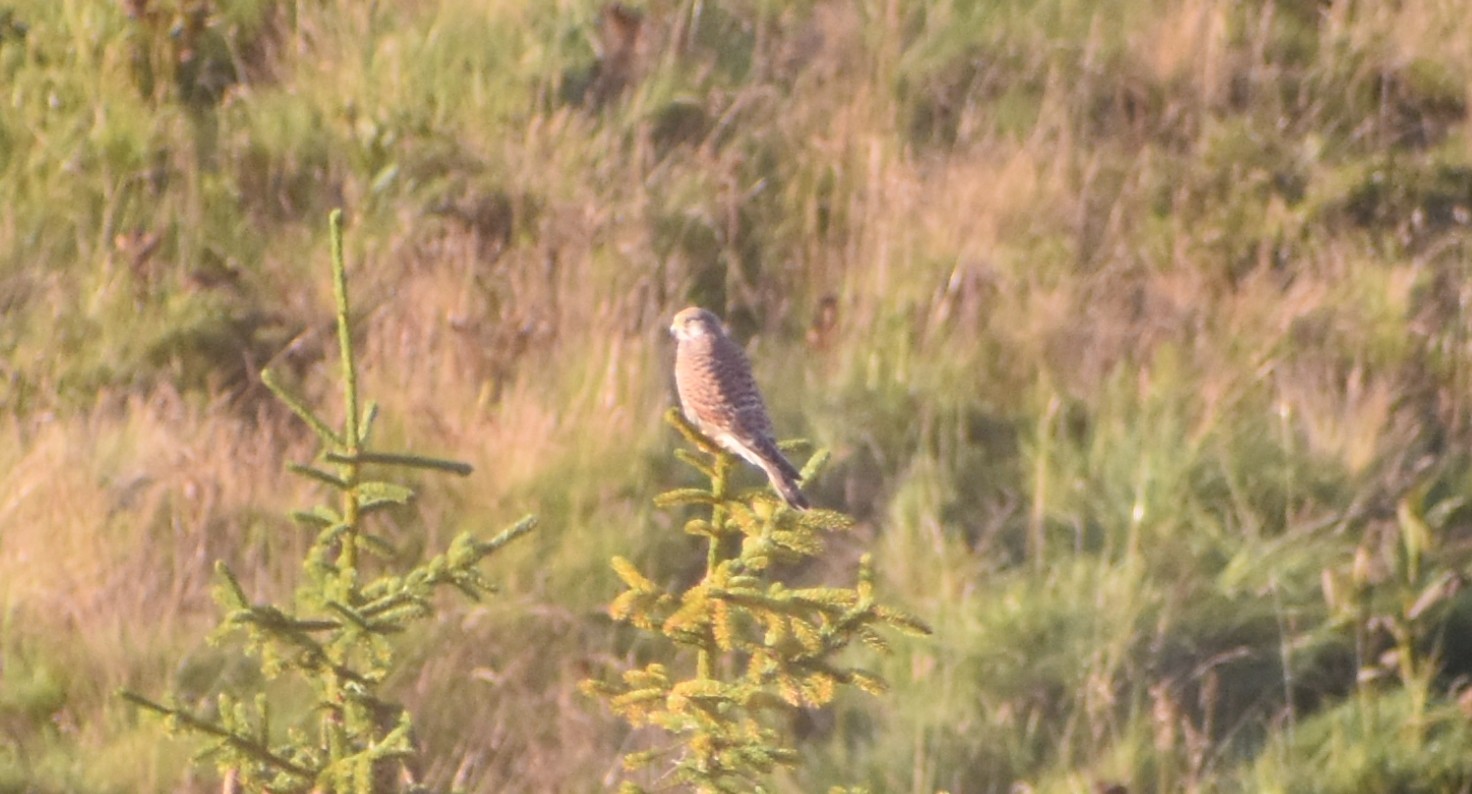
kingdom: Animalia
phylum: Chordata
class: Aves
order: Falconiformes
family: Falconidae
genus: Falco
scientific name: Falco tinnunculus
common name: Common kestrel
